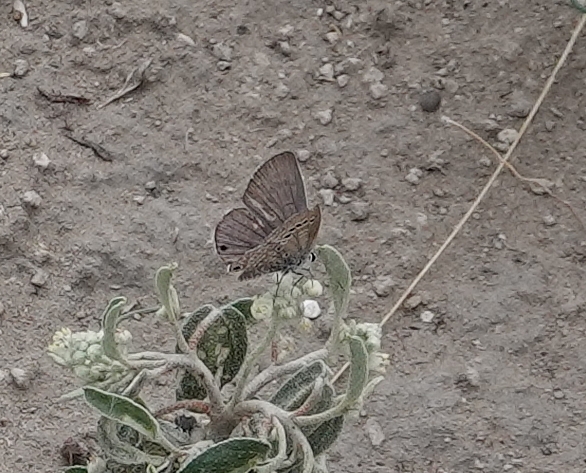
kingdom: Animalia
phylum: Arthropoda
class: Insecta
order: Lepidoptera
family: Lycaenidae
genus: Echinargus
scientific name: Echinargus isola
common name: Reakirt's blue
